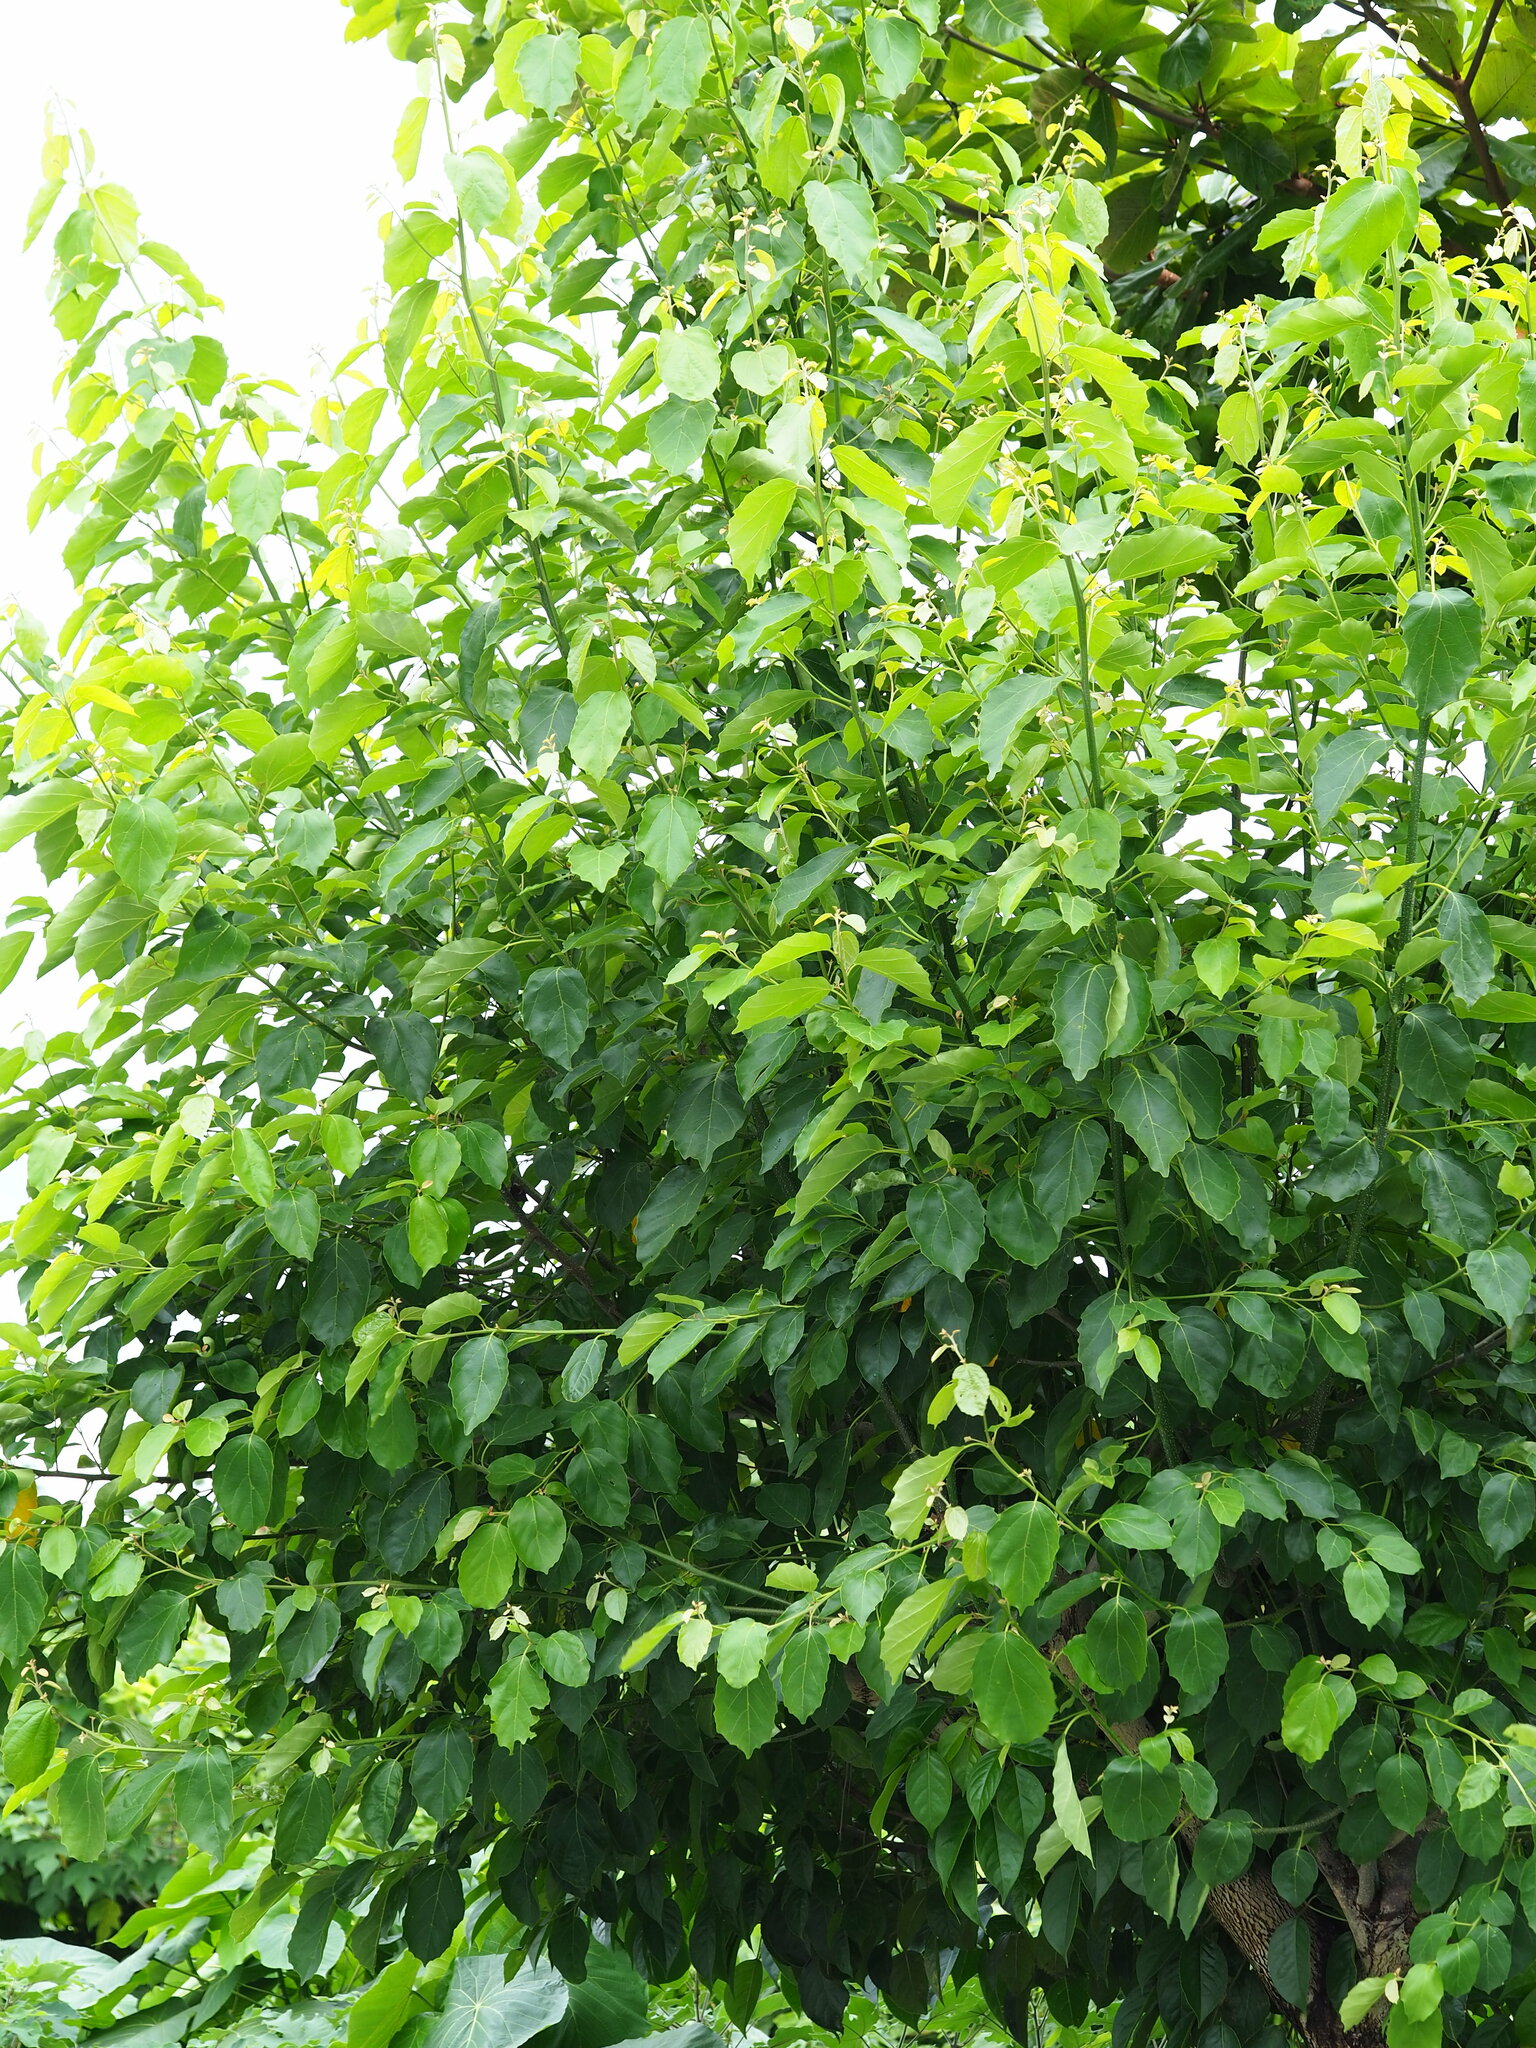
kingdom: Plantae
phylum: Tracheophyta
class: Magnoliopsida
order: Boraginales
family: Cordiaceae
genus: Cordia
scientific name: Cordia dichotoma
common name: Fragrant manjack
